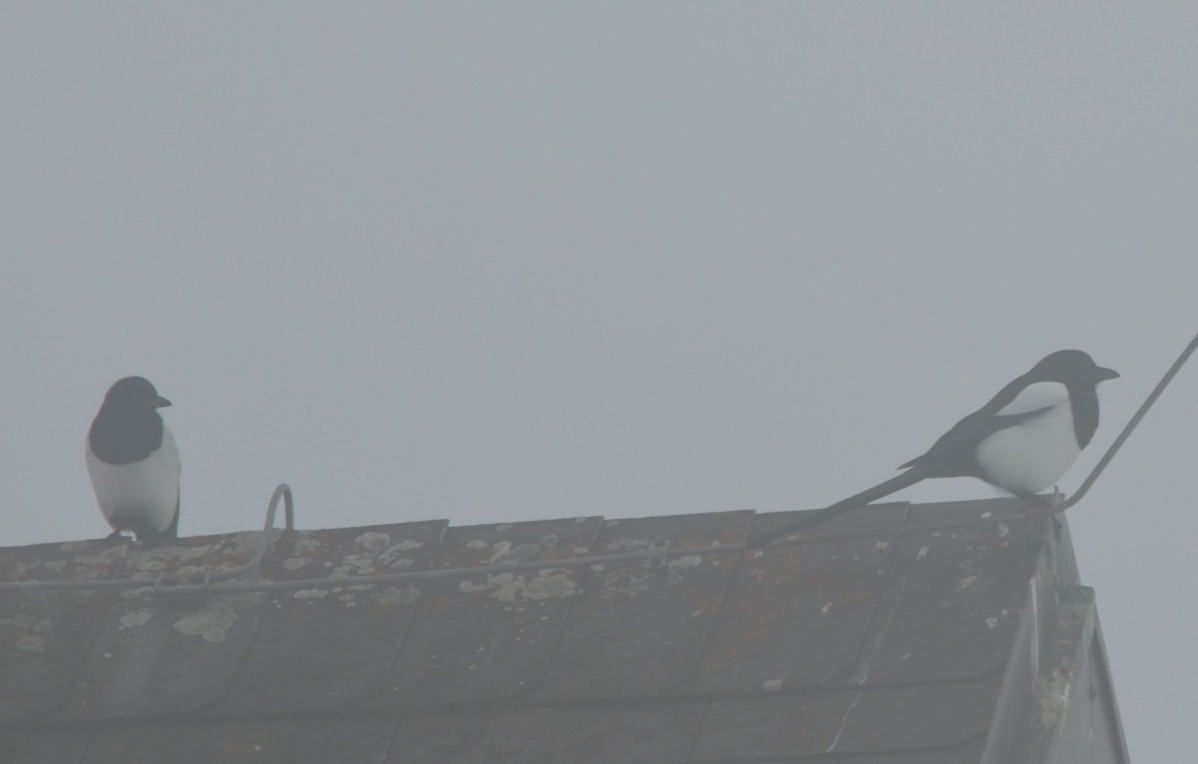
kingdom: Animalia
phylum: Chordata
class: Aves
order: Passeriformes
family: Corvidae
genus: Pica
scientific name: Pica pica
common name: Eurasian magpie
